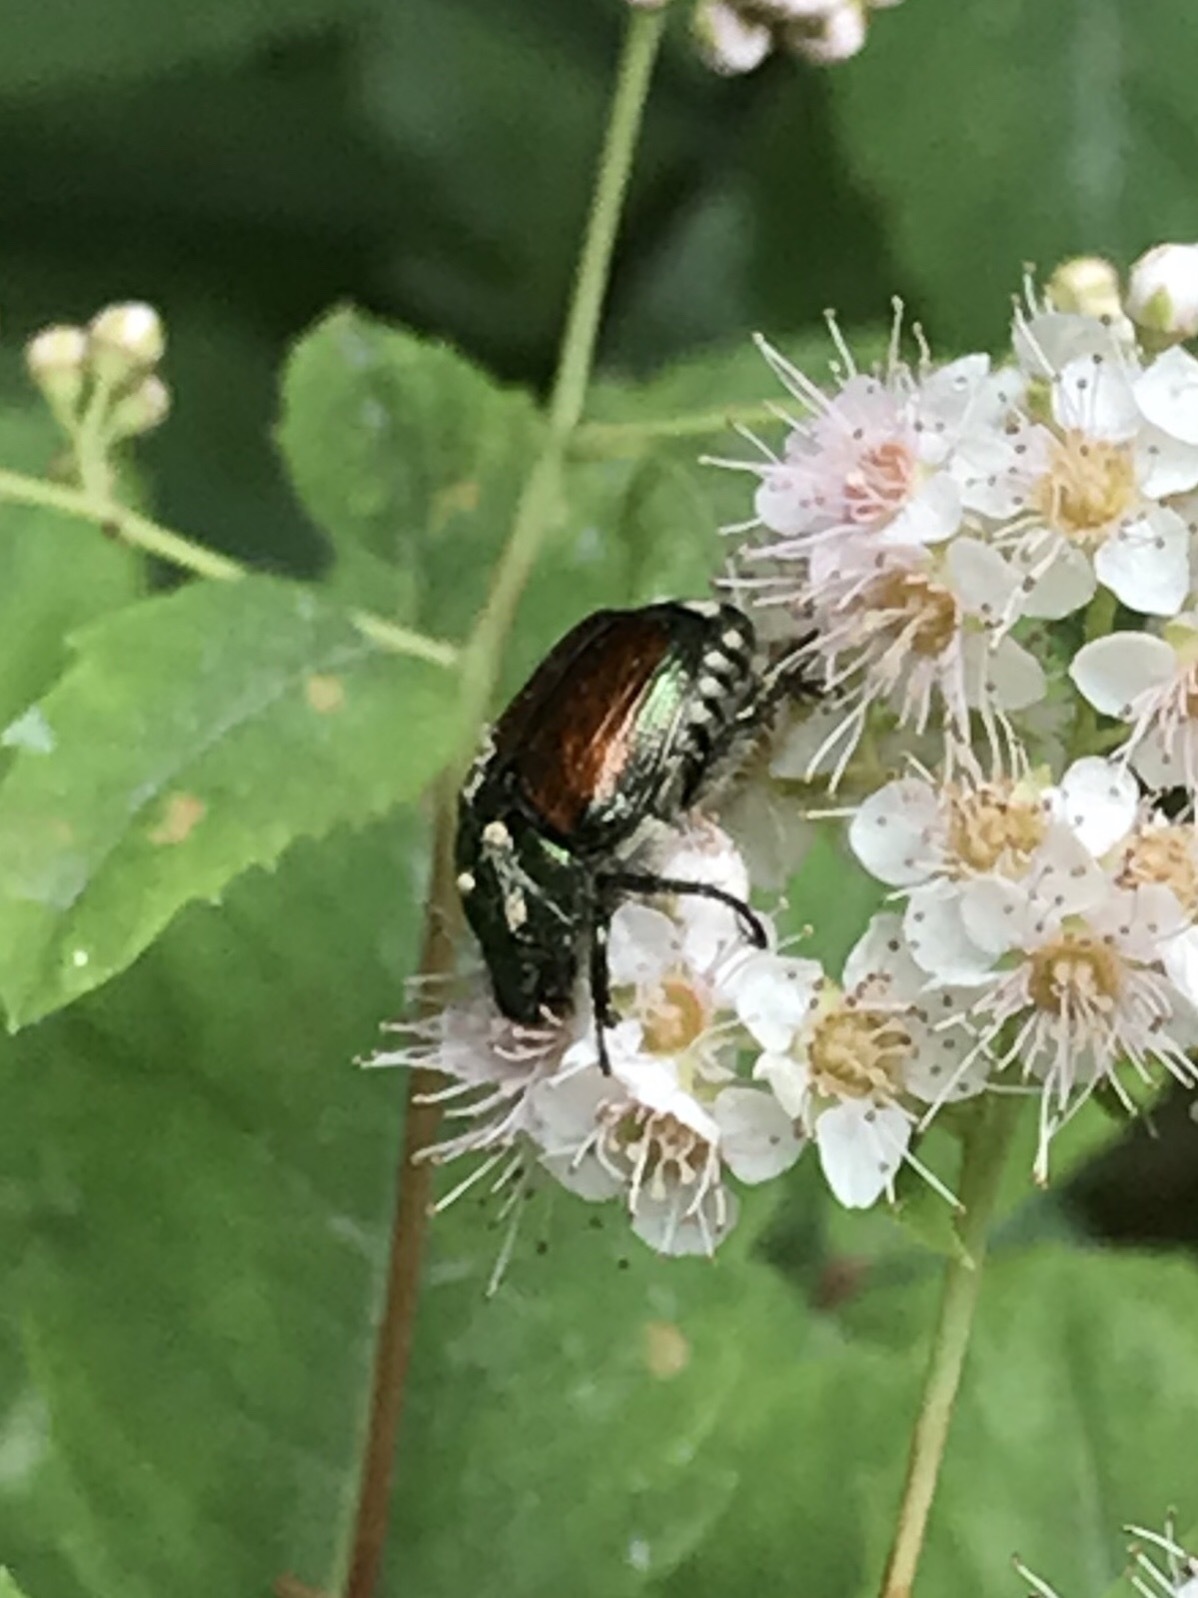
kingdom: Animalia
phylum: Arthropoda
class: Insecta
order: Coleoptera
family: Scarabaeidae
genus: Popillia
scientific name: Popillia japonica
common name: Japanese beetle
